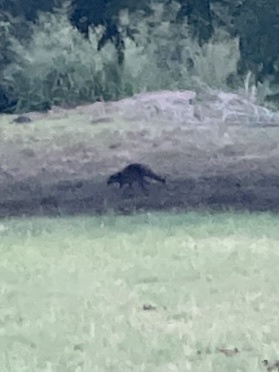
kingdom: Animalia
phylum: Chordata
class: Mammalia
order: Carnivora
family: Procyonidae
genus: Procyon
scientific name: Procyon lotor
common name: Raccoon
